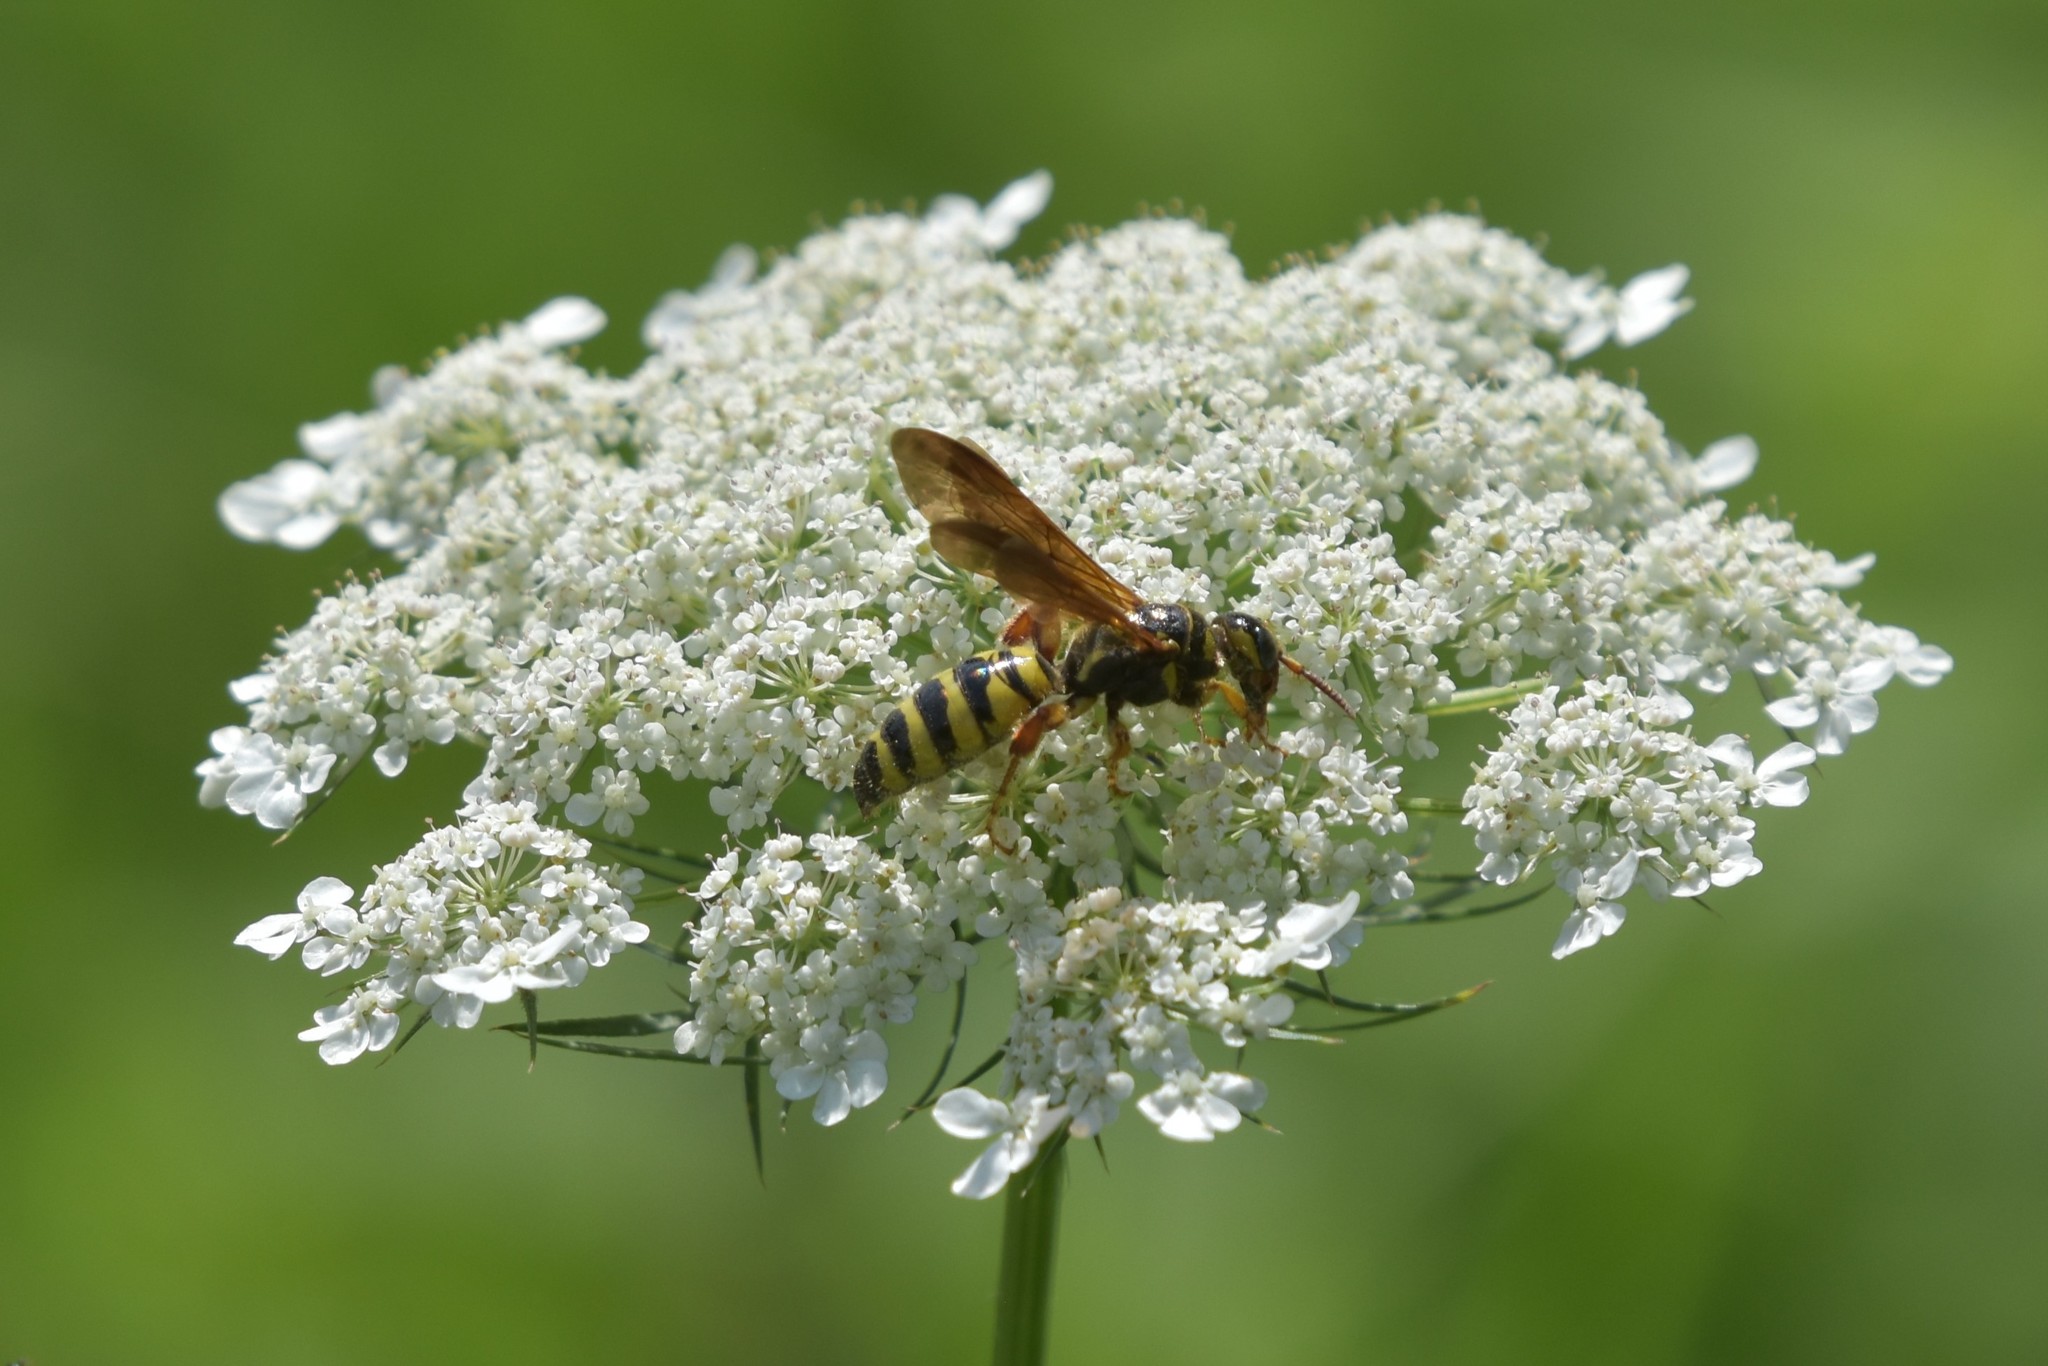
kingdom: Animalia
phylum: Arthropoda
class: Insecta
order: Hymenoptera
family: Tiphiidae
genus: Myzinum
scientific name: Myzinum quinquecinctum
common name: Five-banded thynnid wasp
